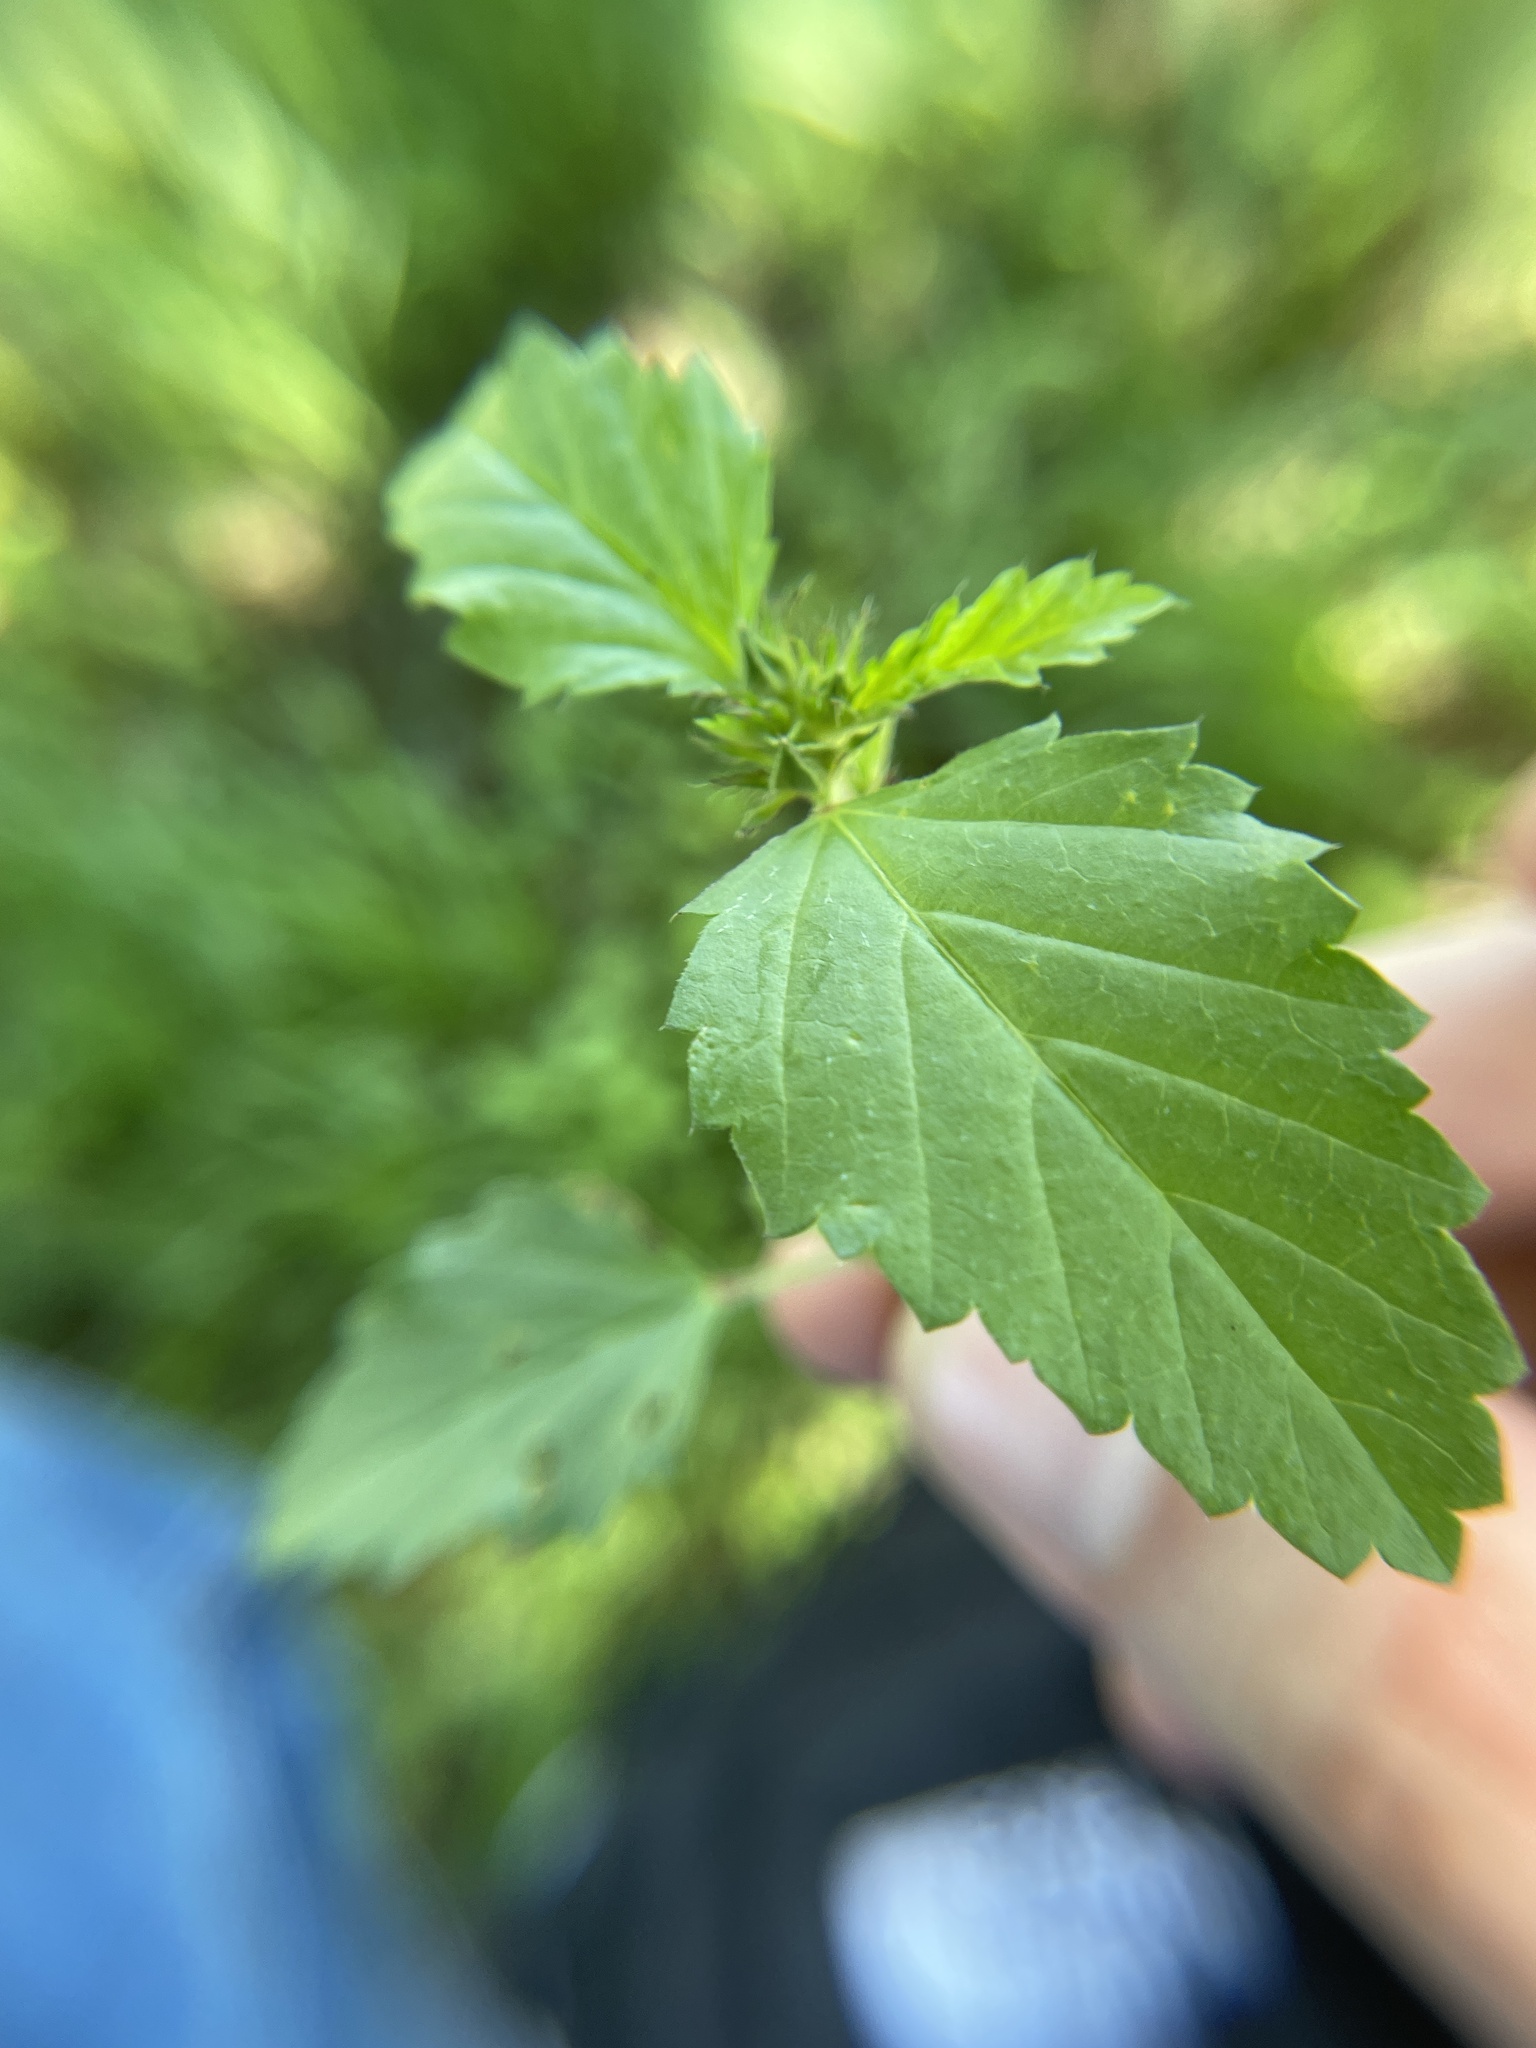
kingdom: Plantae
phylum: Tracheophyta
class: Magnoliopsida
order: Malvales
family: Malvaceae
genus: Malvastrum
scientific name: Malvastrum coromandelianum
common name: Threelobe false mallow
